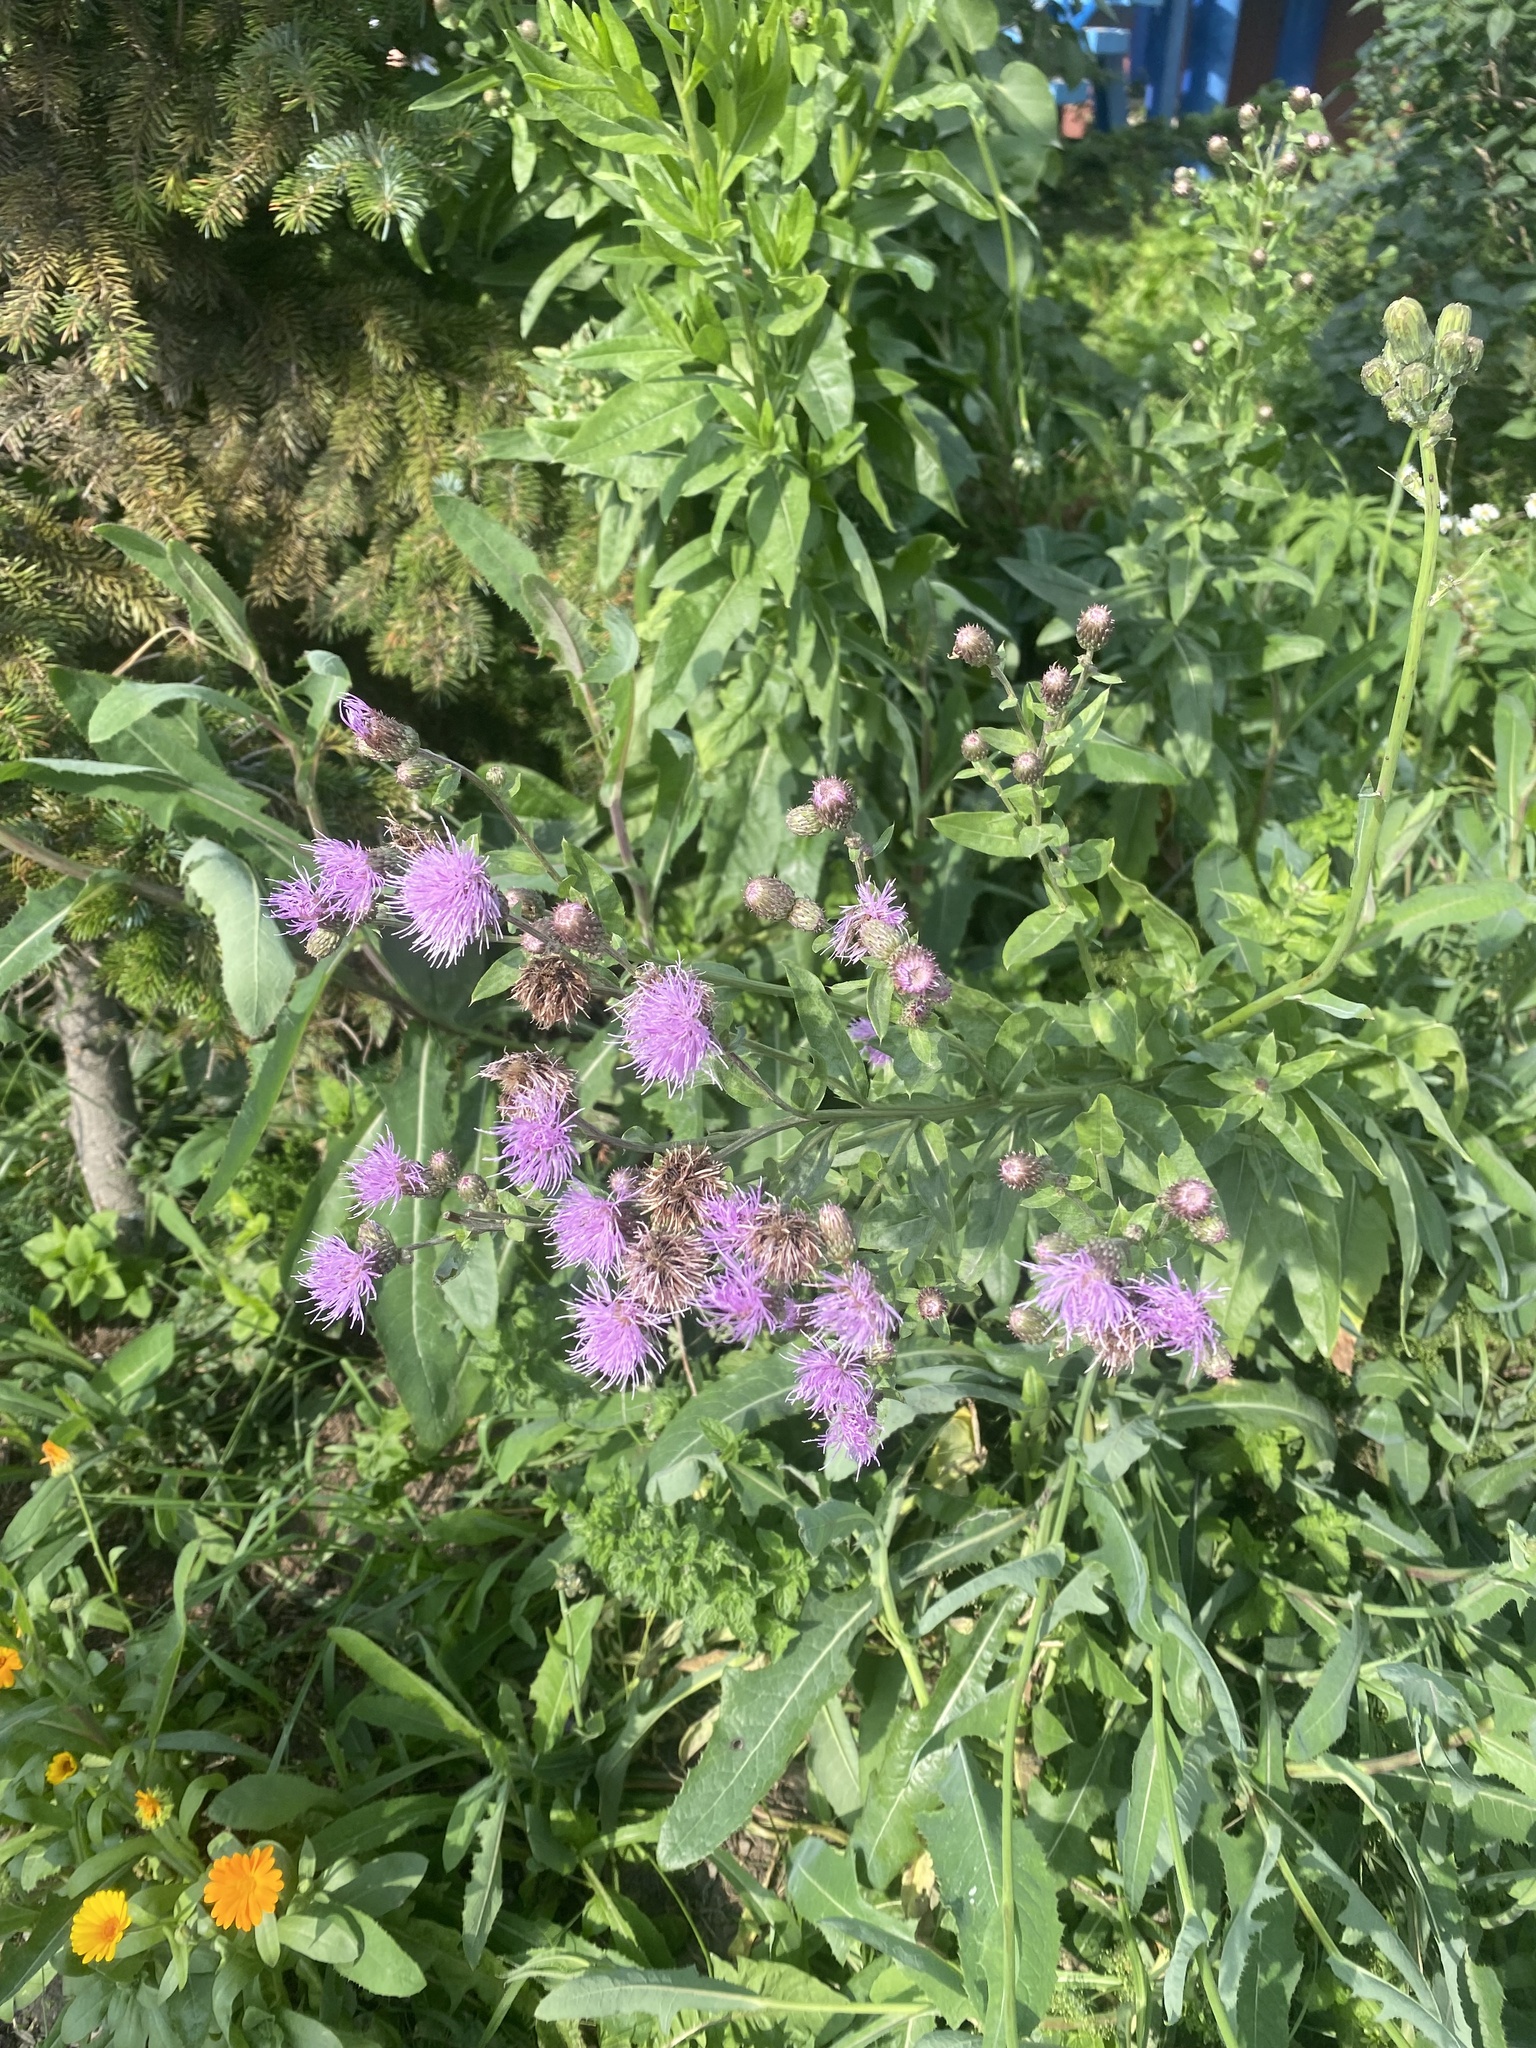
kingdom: Plantae
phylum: Tracheophyta
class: Magnoliopsida
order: Asterales
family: Asteraceae
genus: Cirsium
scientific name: Cirsium arvense
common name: Creeping thistle
